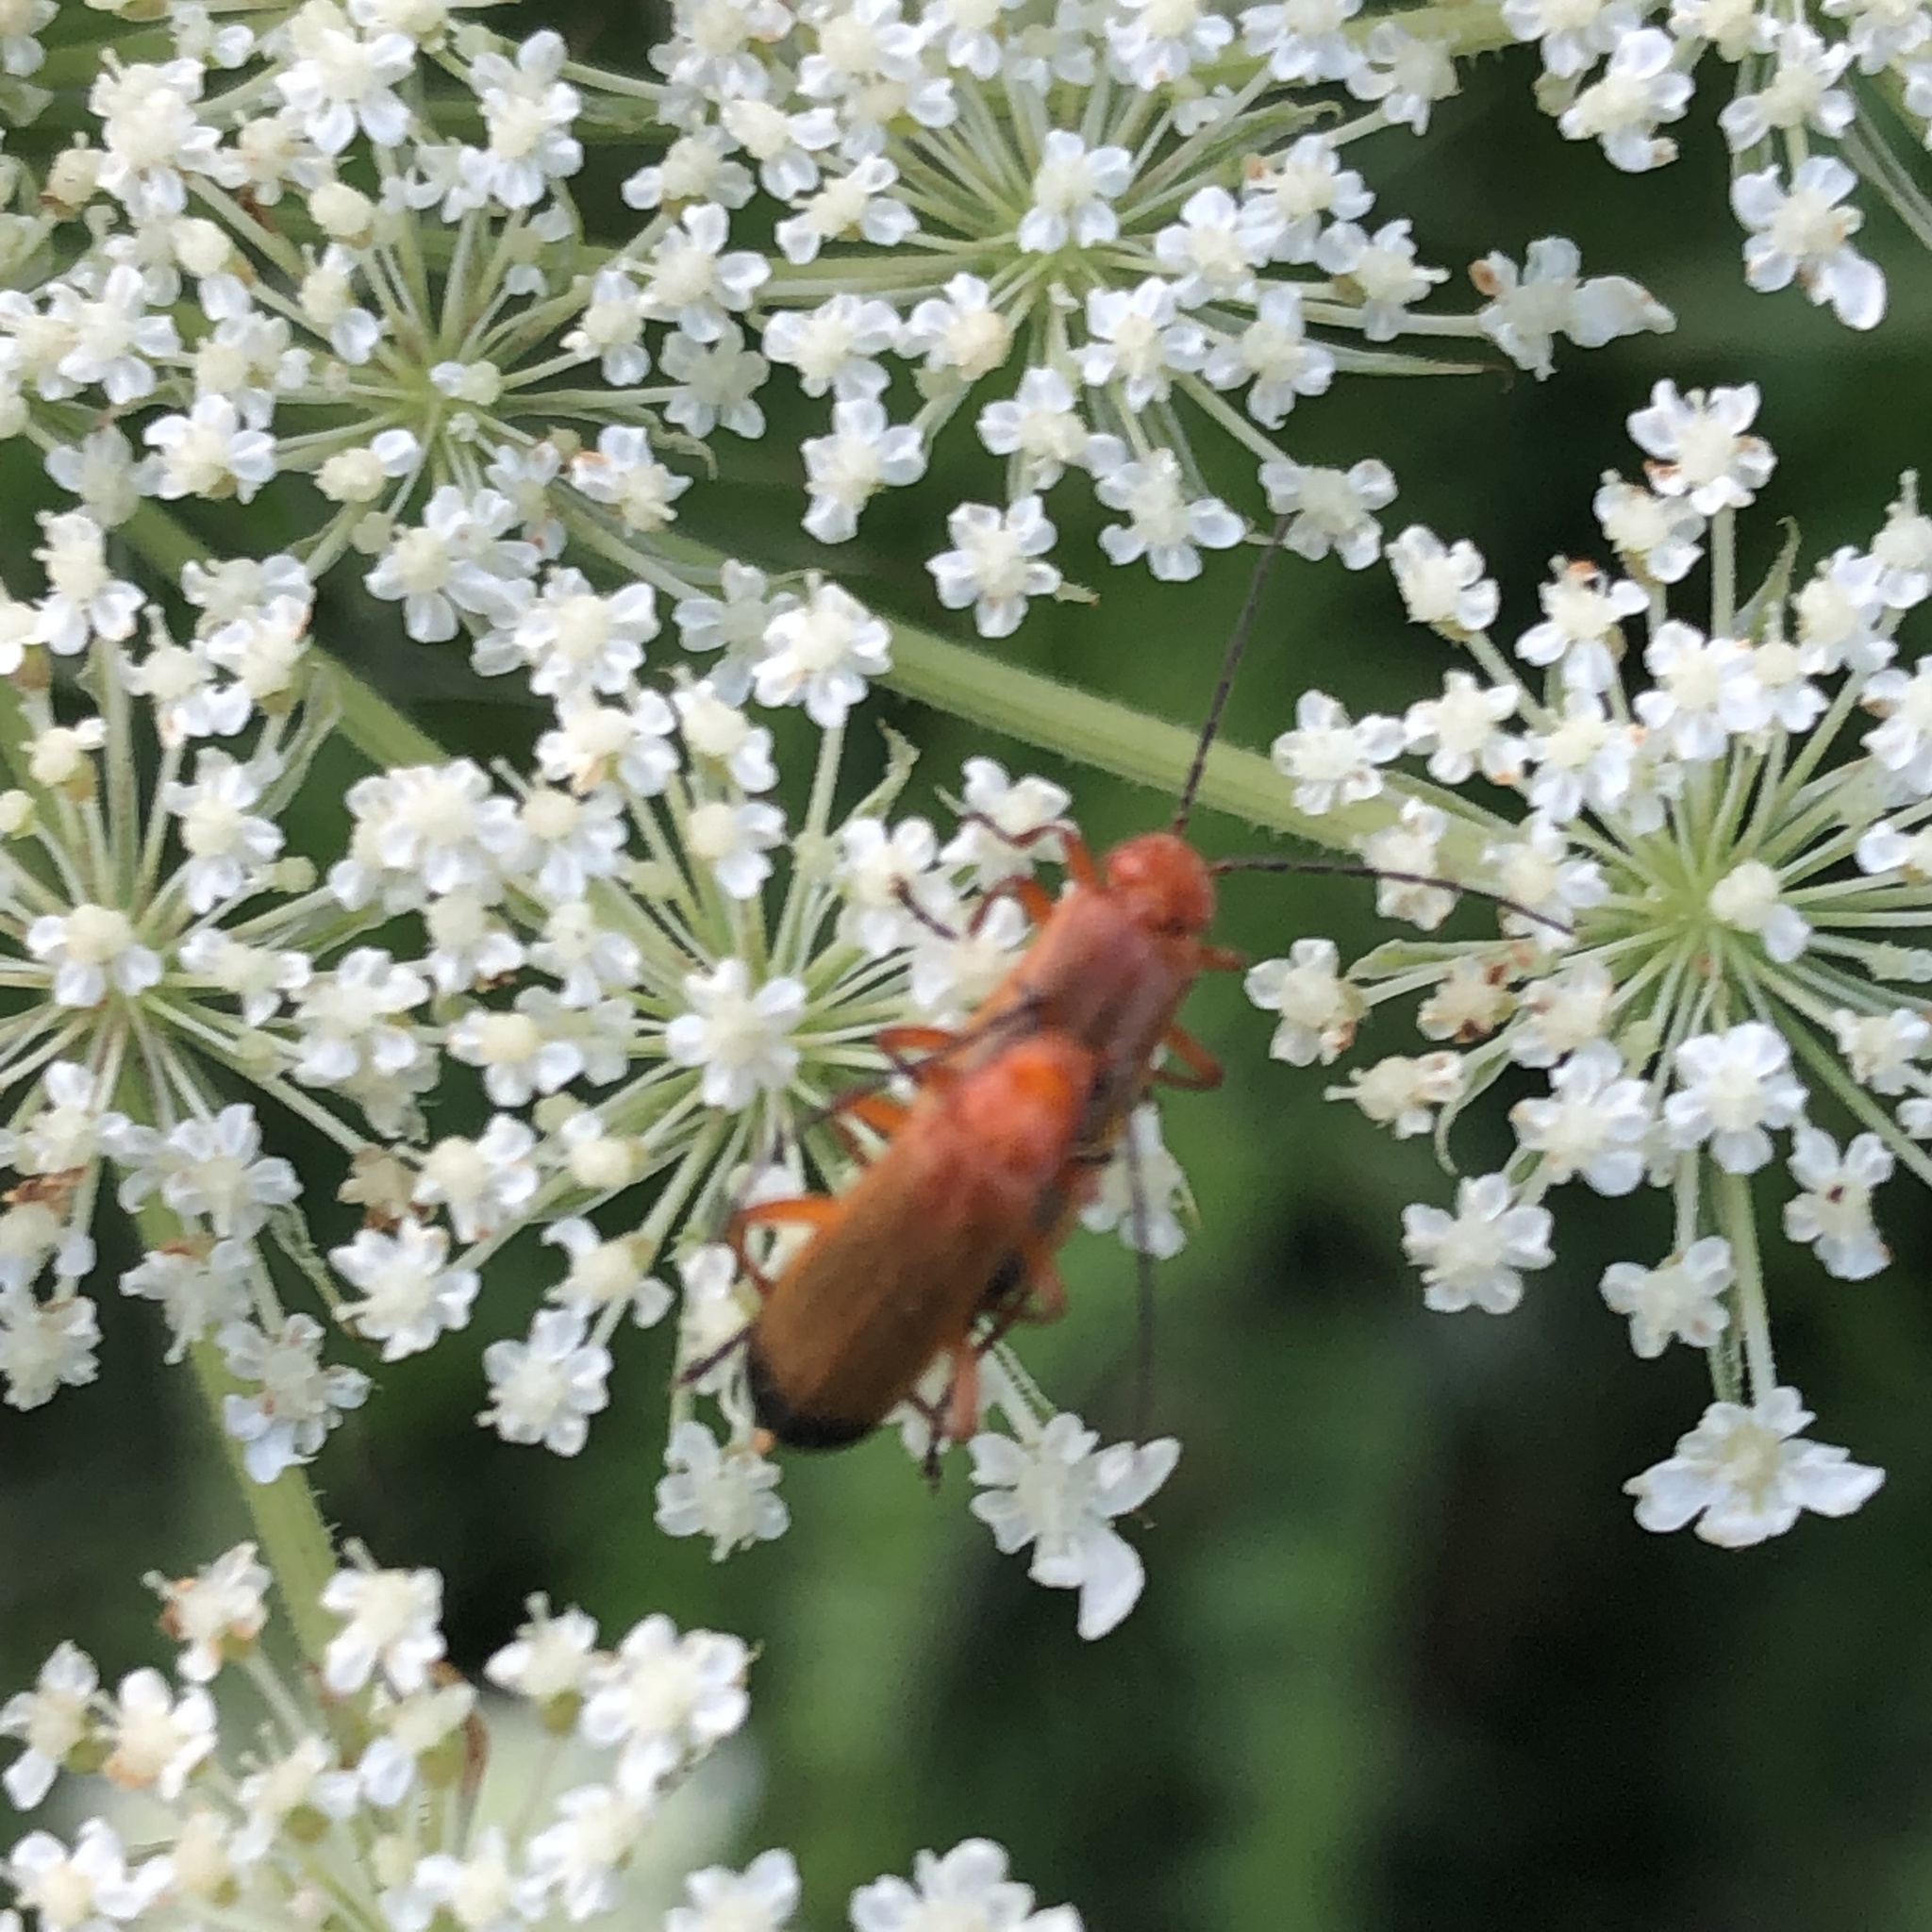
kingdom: Animalia
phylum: Arthropoda
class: Insecta
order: Coleoptera
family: Cantharidae
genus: Rhagonycha
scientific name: Rhagonycha fulva
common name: Common red soldier beetle
